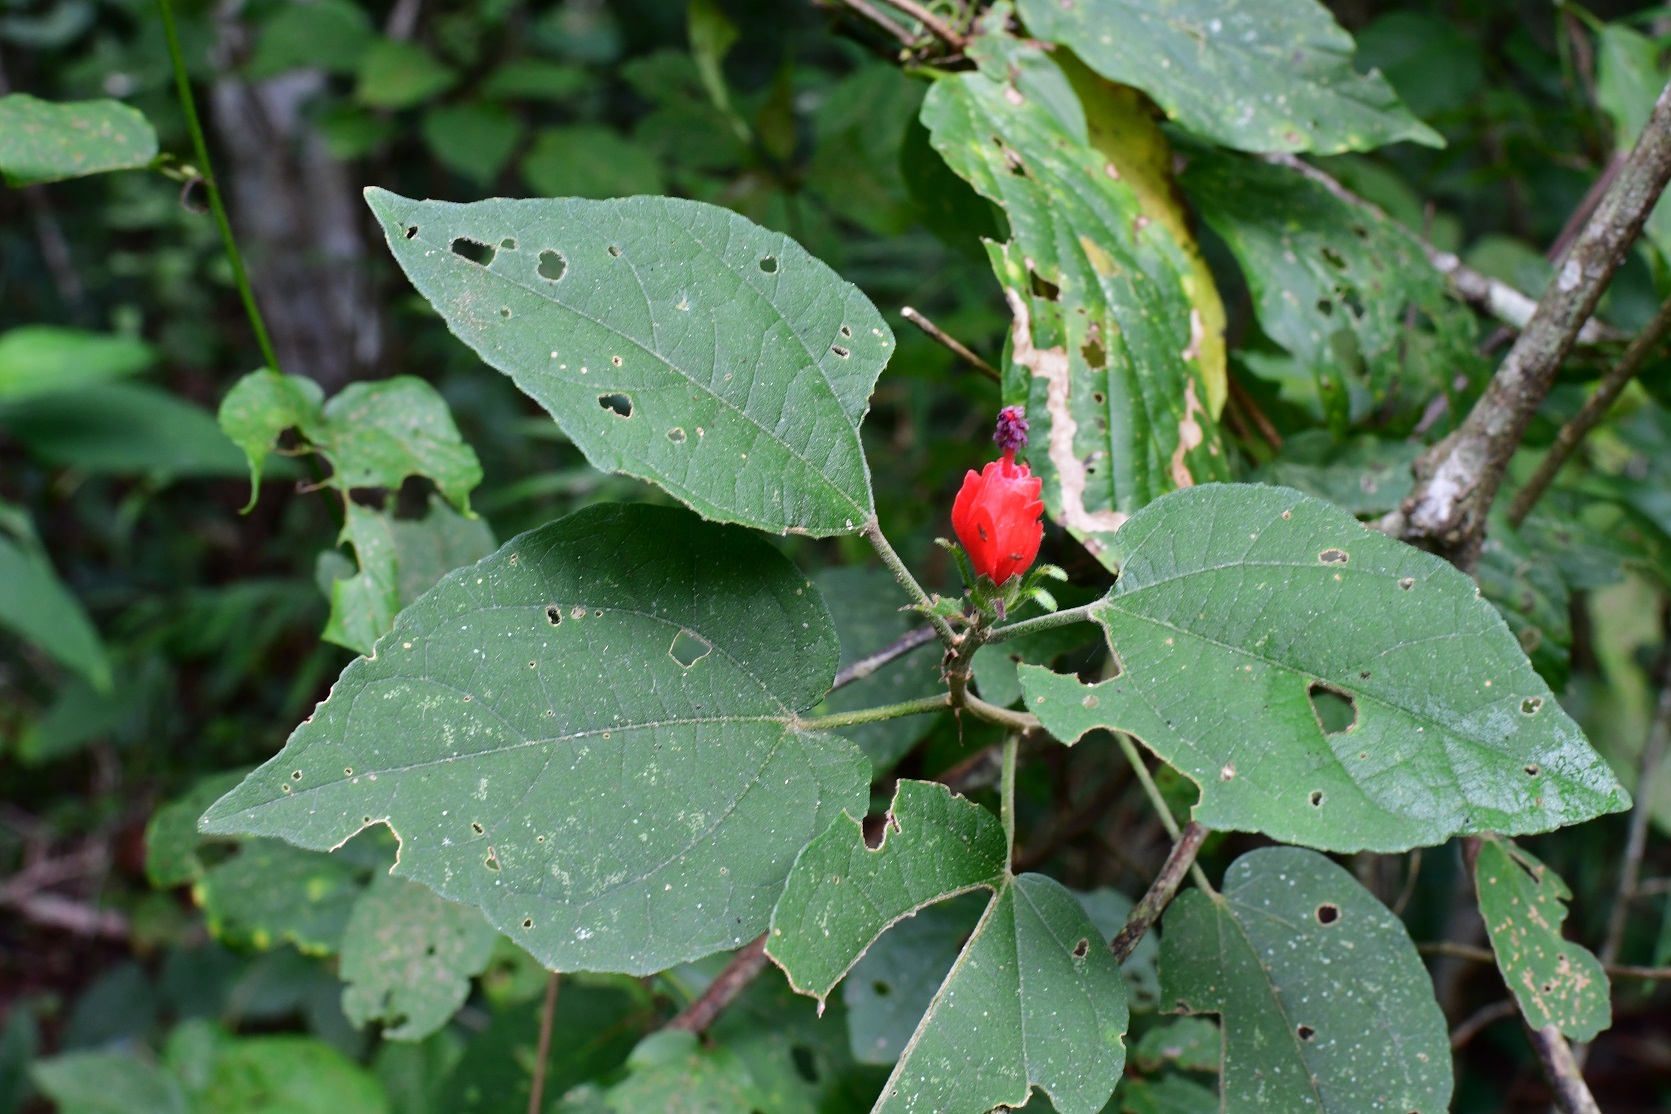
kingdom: Plantae
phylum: Tracheophyta
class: Magnoliopsida
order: Malvales
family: Malvaceae
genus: Malvaviscus
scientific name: Malvaviscus arboreus
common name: Wax mallow
